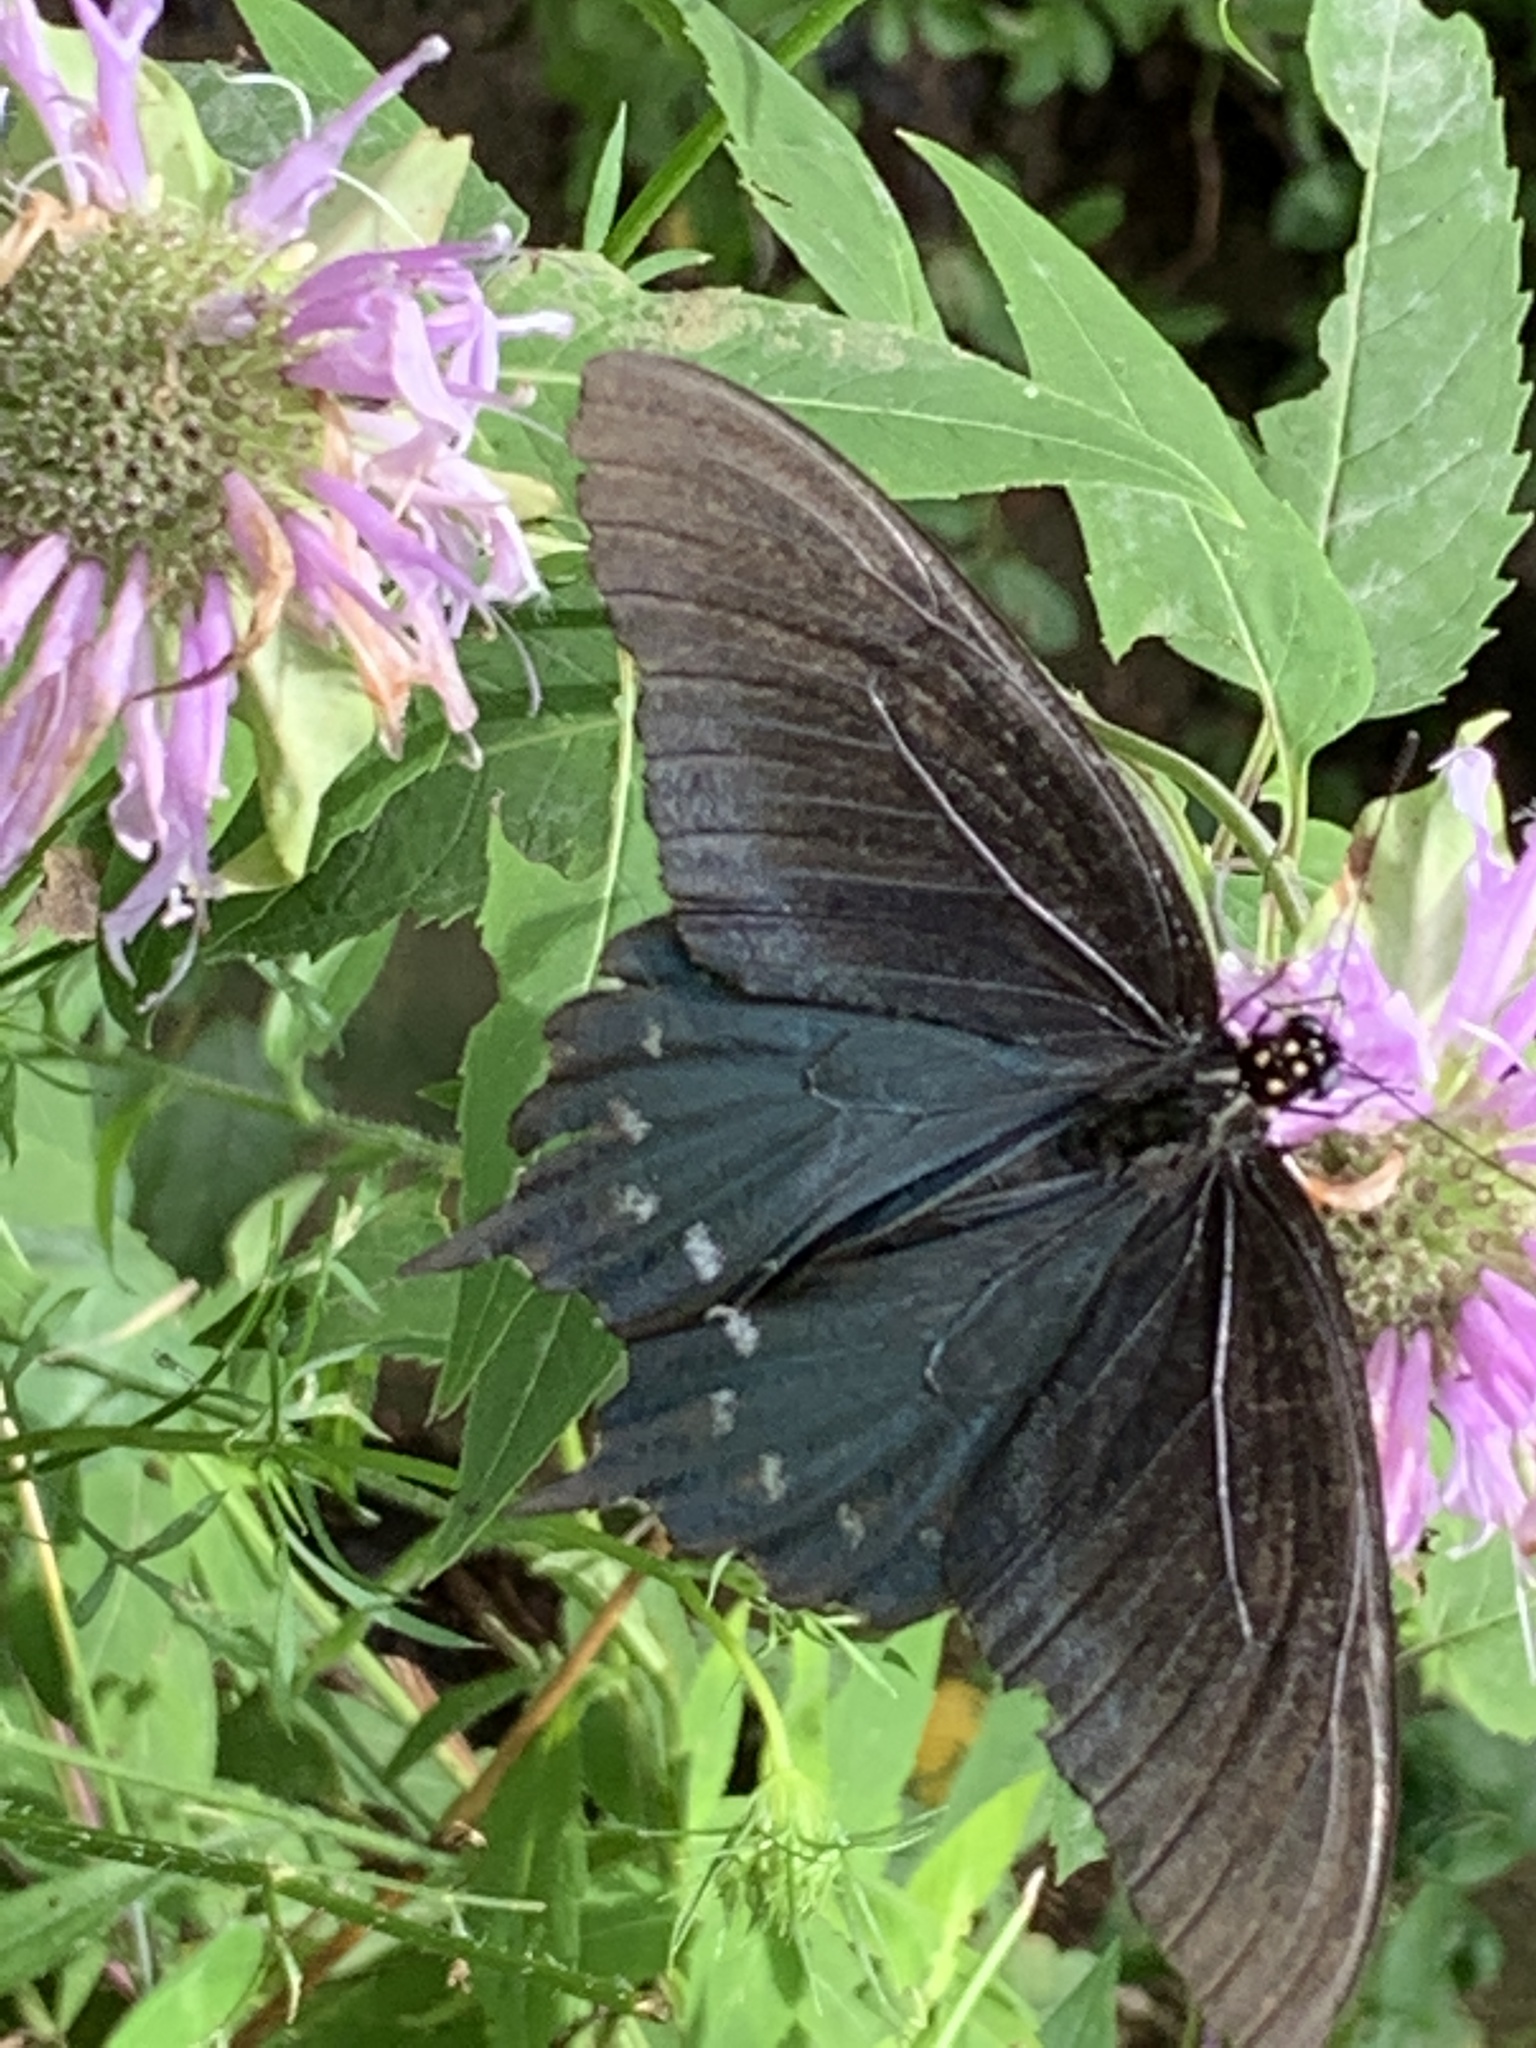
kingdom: Animalia
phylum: Arthropoda
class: Insecta
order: Lepidoptera
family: Papilionidae
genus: Battus
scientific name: Battus philenor
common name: Pipevine swallowtail
